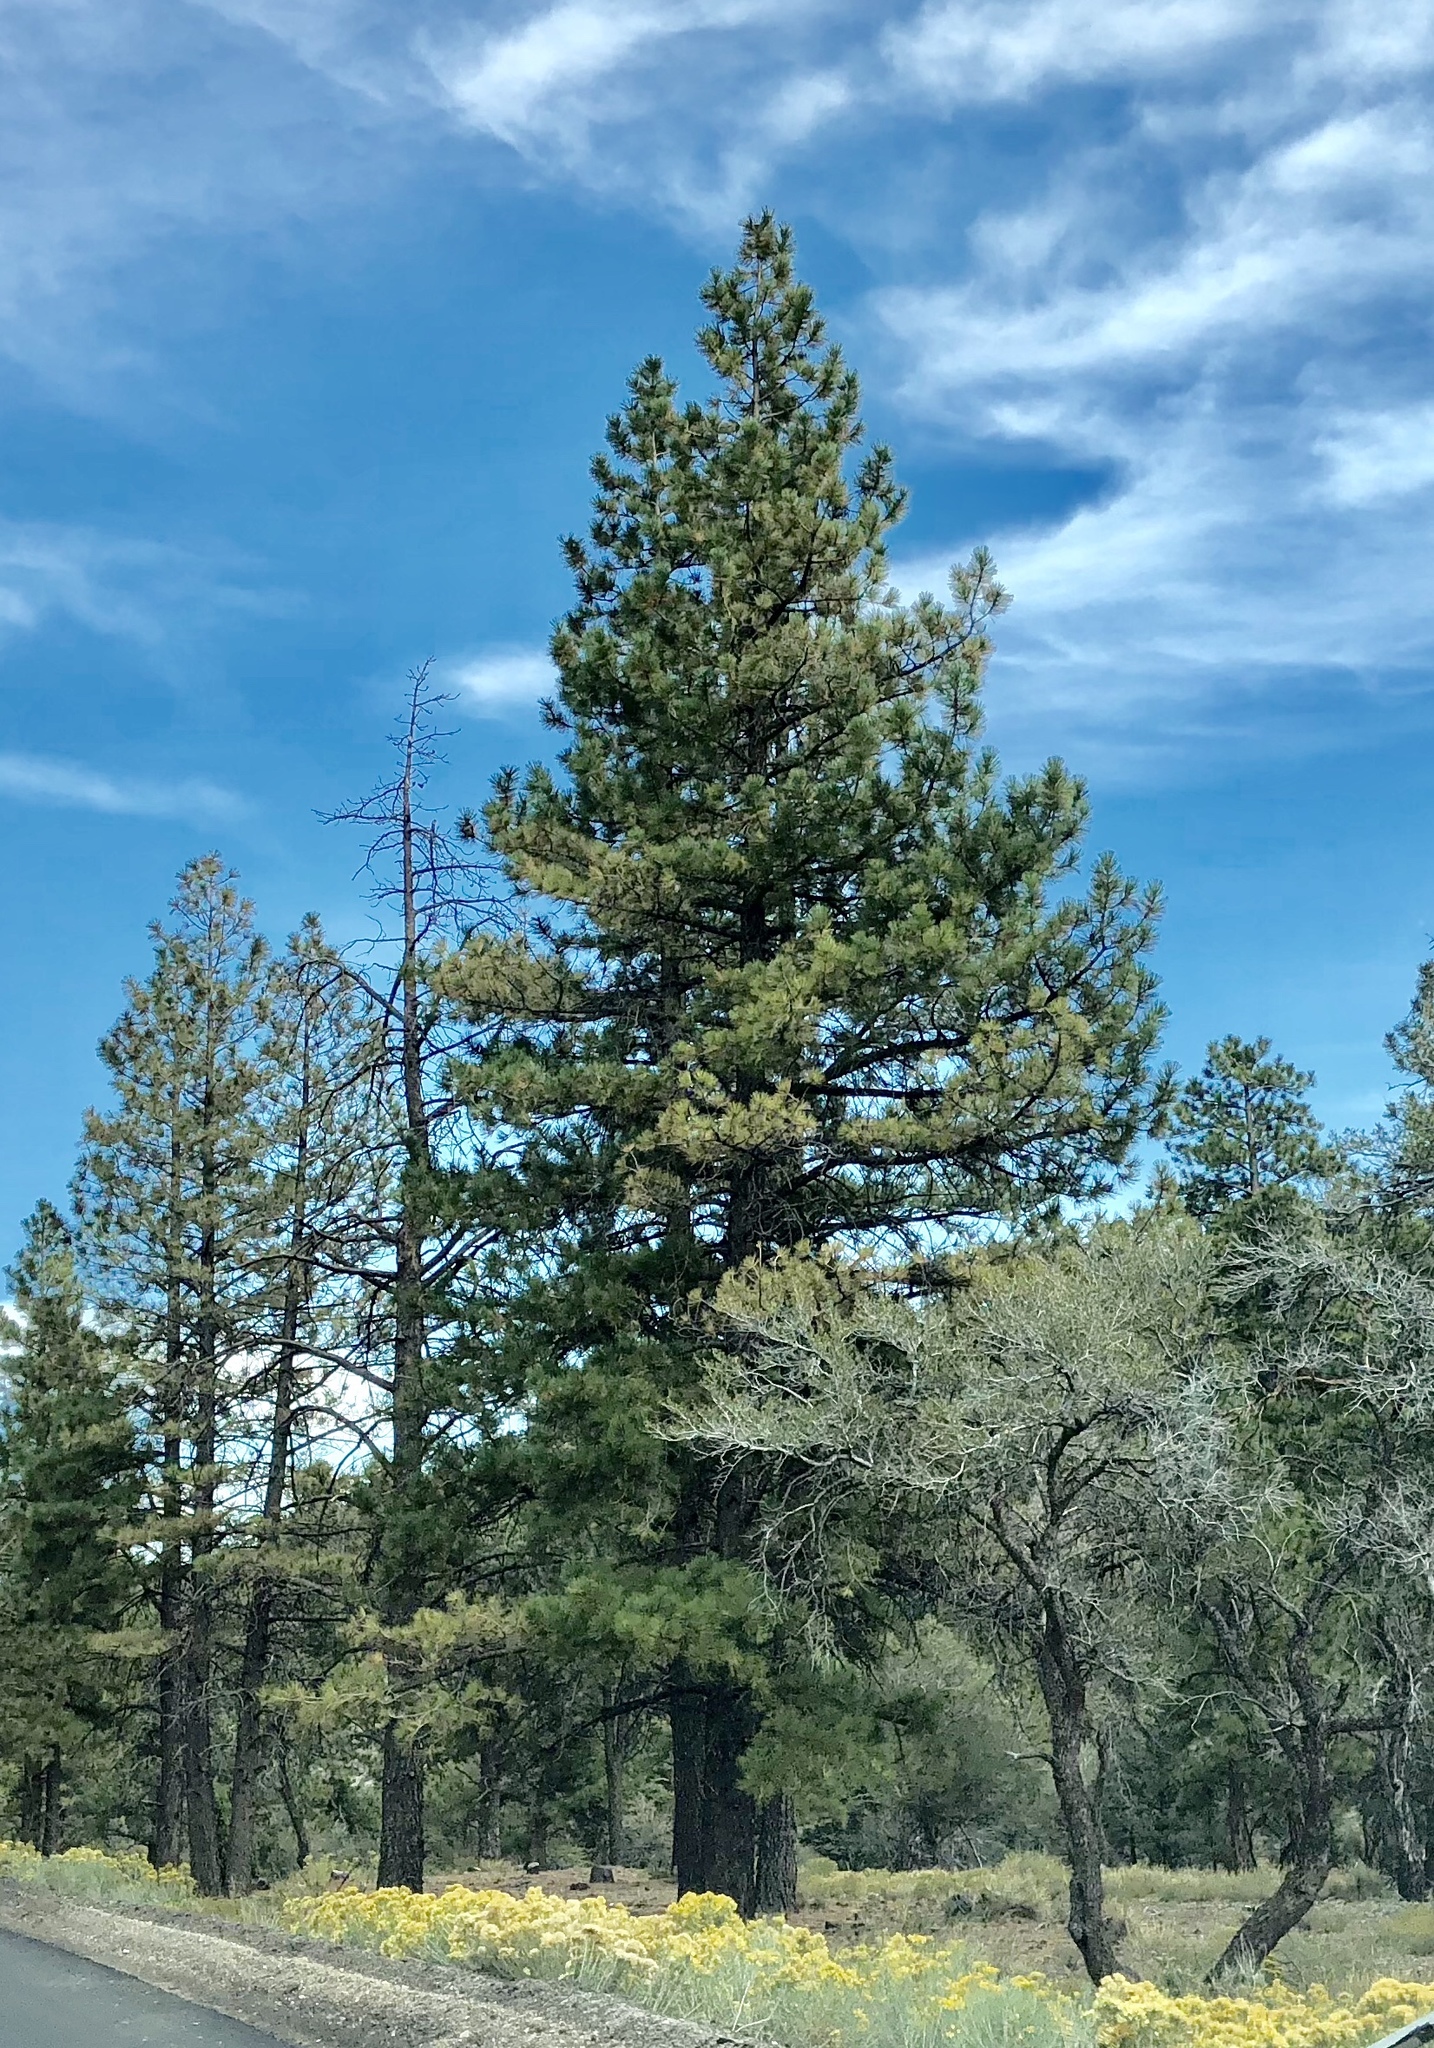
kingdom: Plantae
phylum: Tracheophyta
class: Pinopsida
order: Pinales
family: Pinaceae
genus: Pinus
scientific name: Pinus ponderosa
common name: Western yellow-pine
